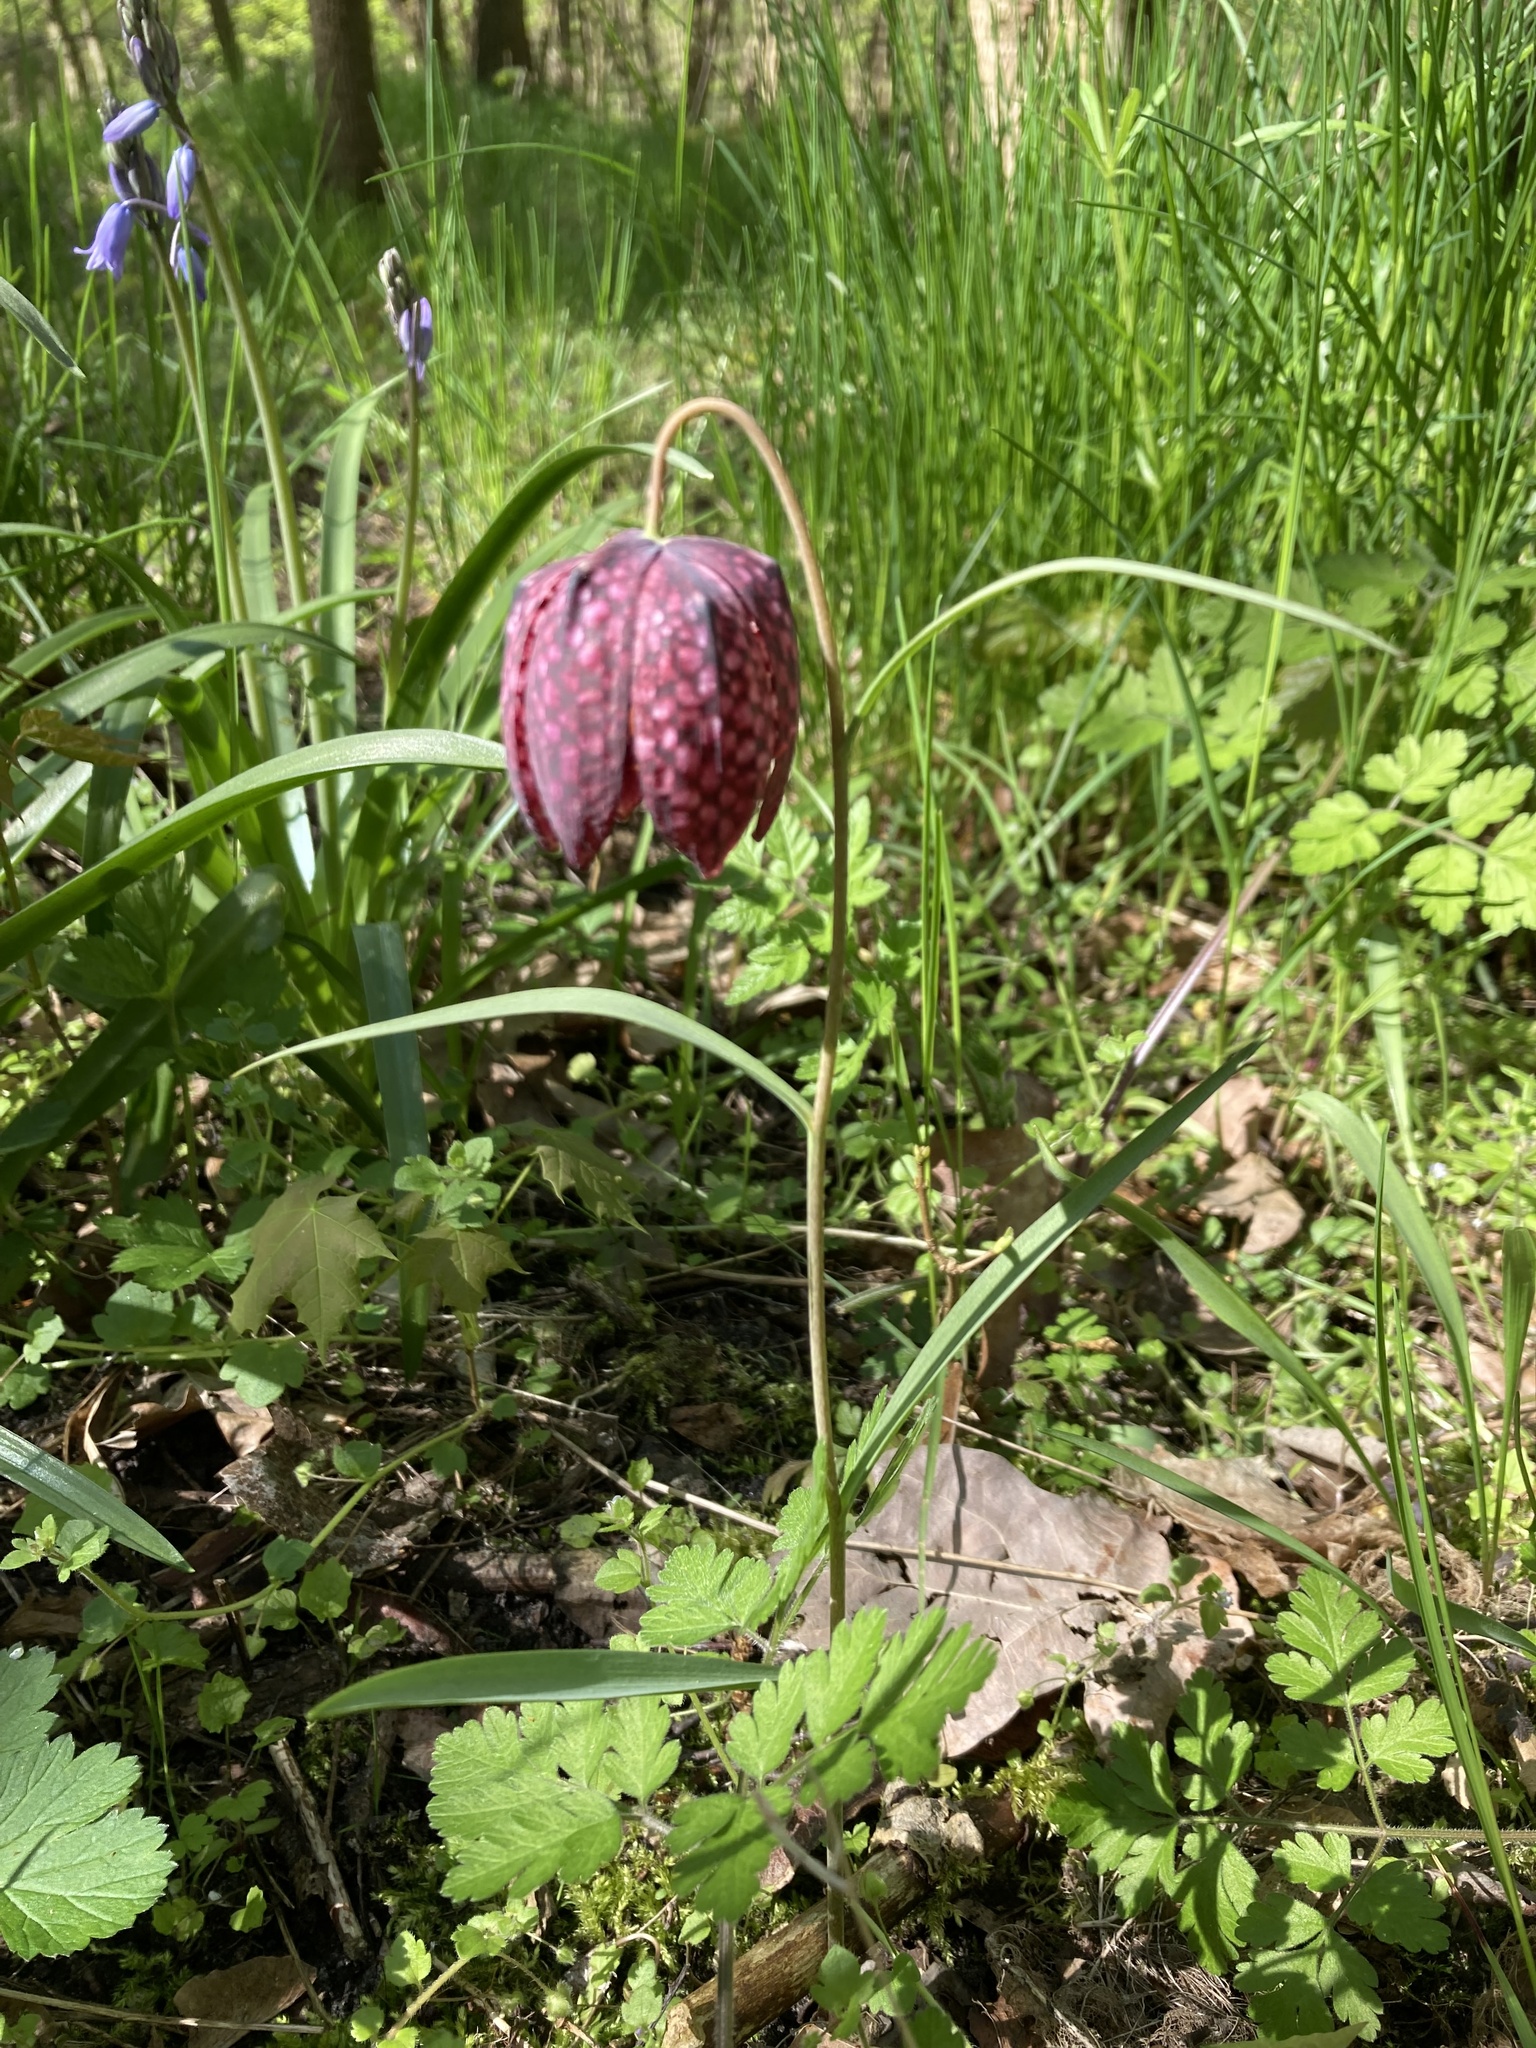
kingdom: Plantae
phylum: Tracheophyta
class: Liliopsida
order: Liliales
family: Liliaceae
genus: Fritillaria
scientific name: Fritillaria meleagris
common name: Fritillary
